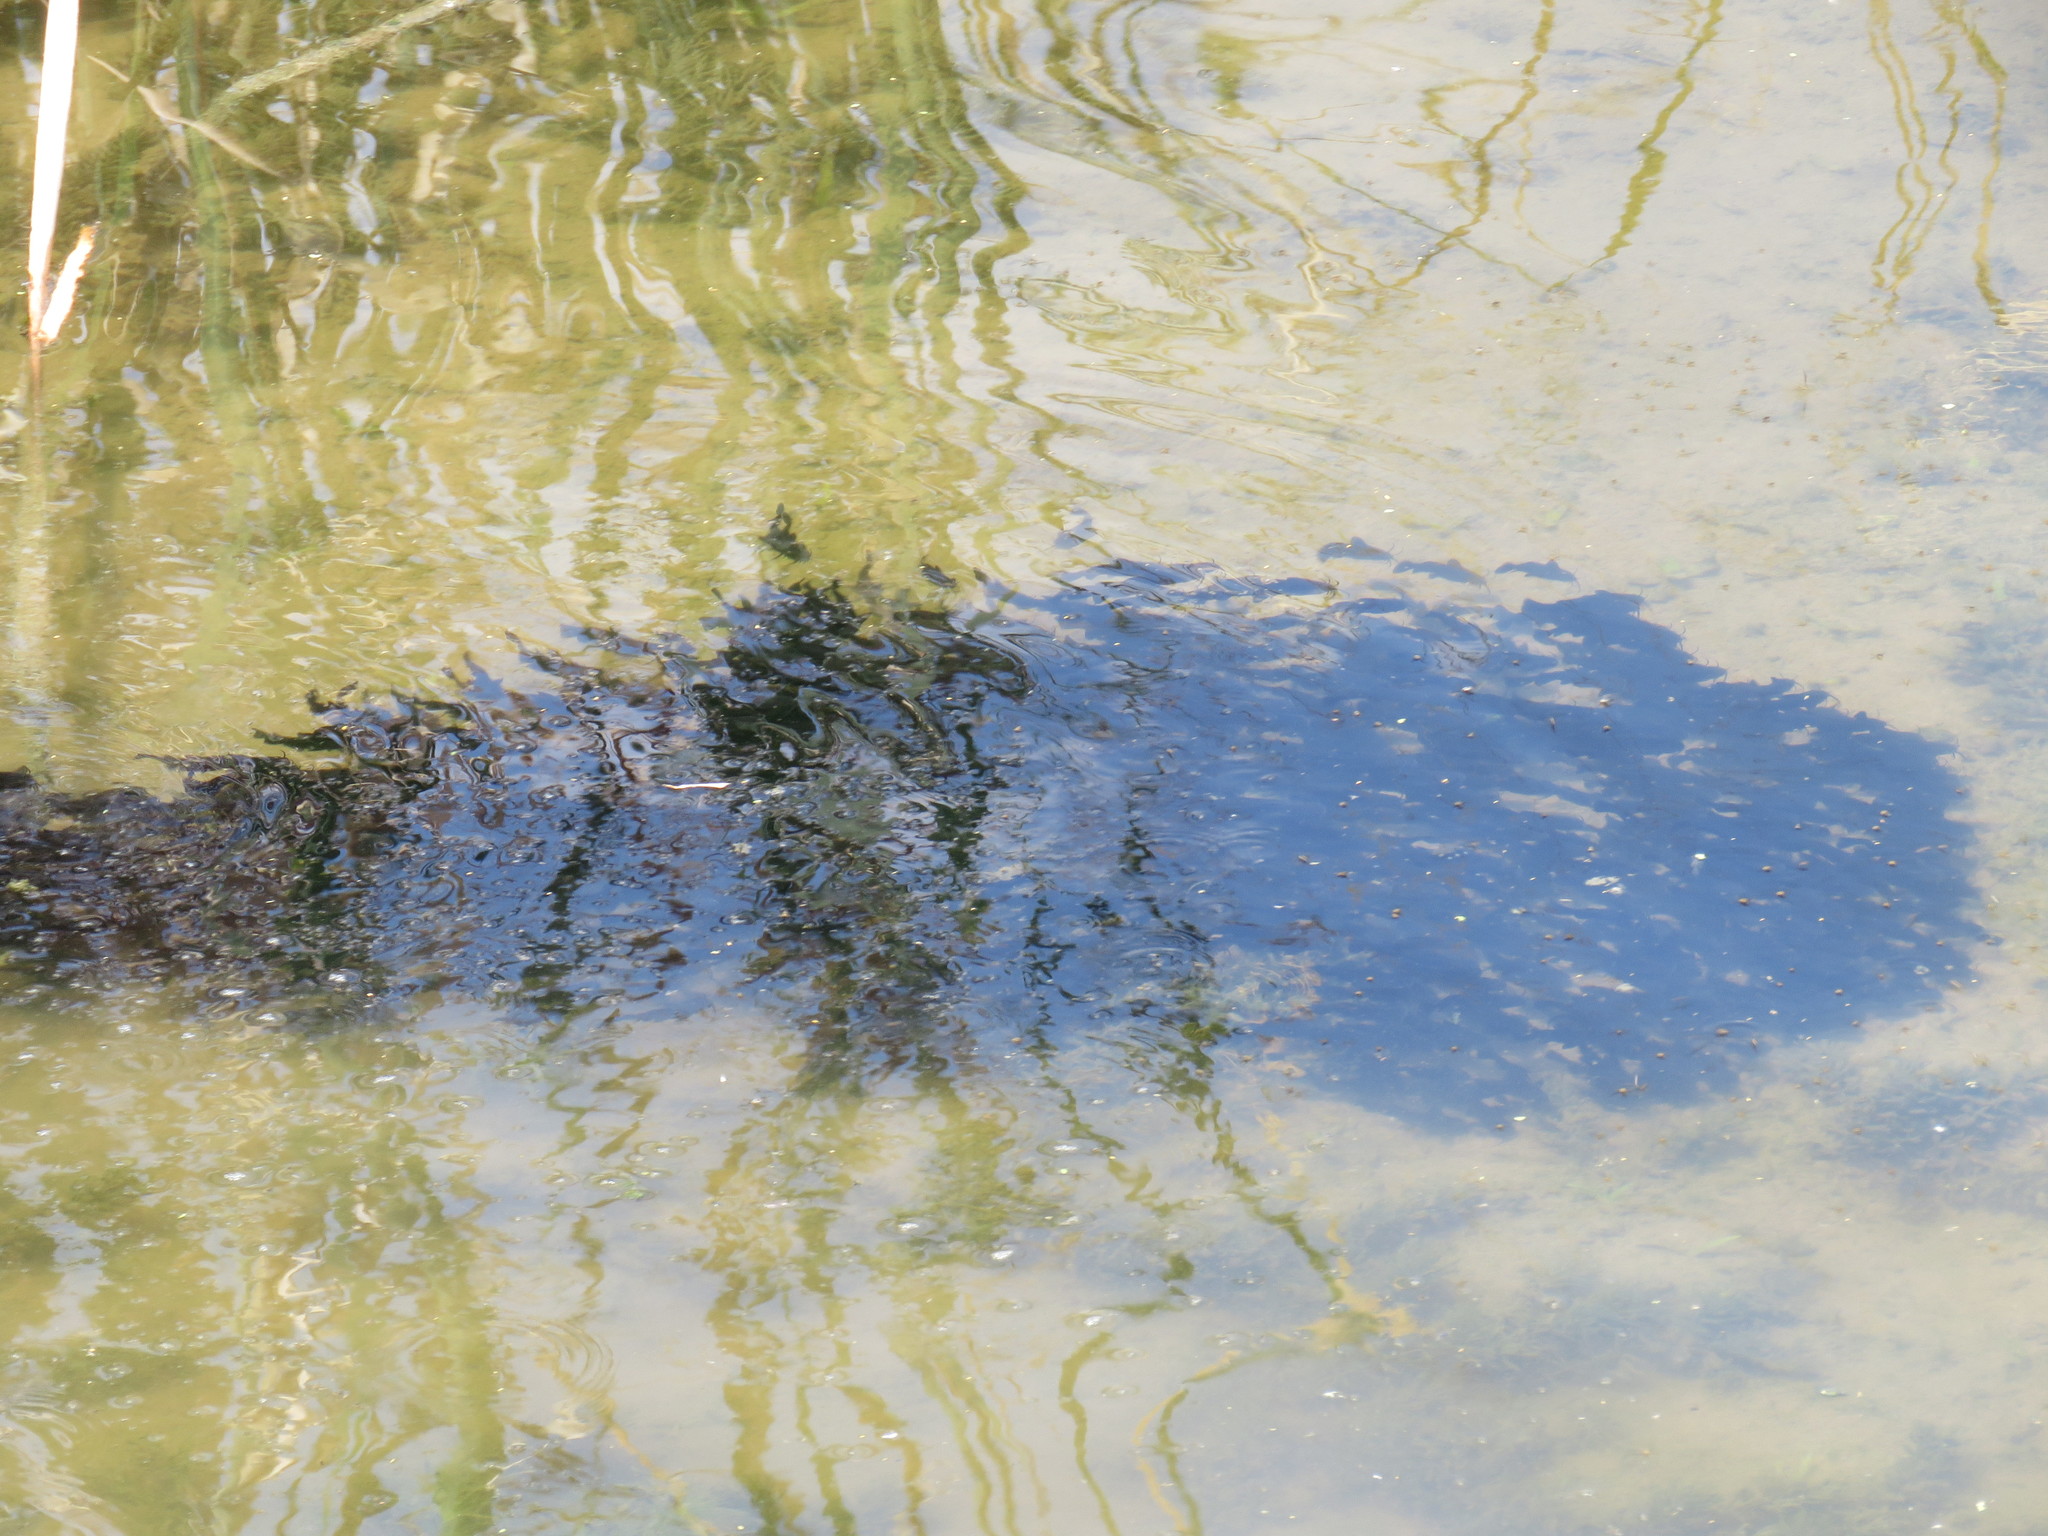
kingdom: Animalia
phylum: Chordata
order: Siluriformes
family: Ictaluridae
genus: Ameiurus
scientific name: Ameiurus melas
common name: Black bullhead
